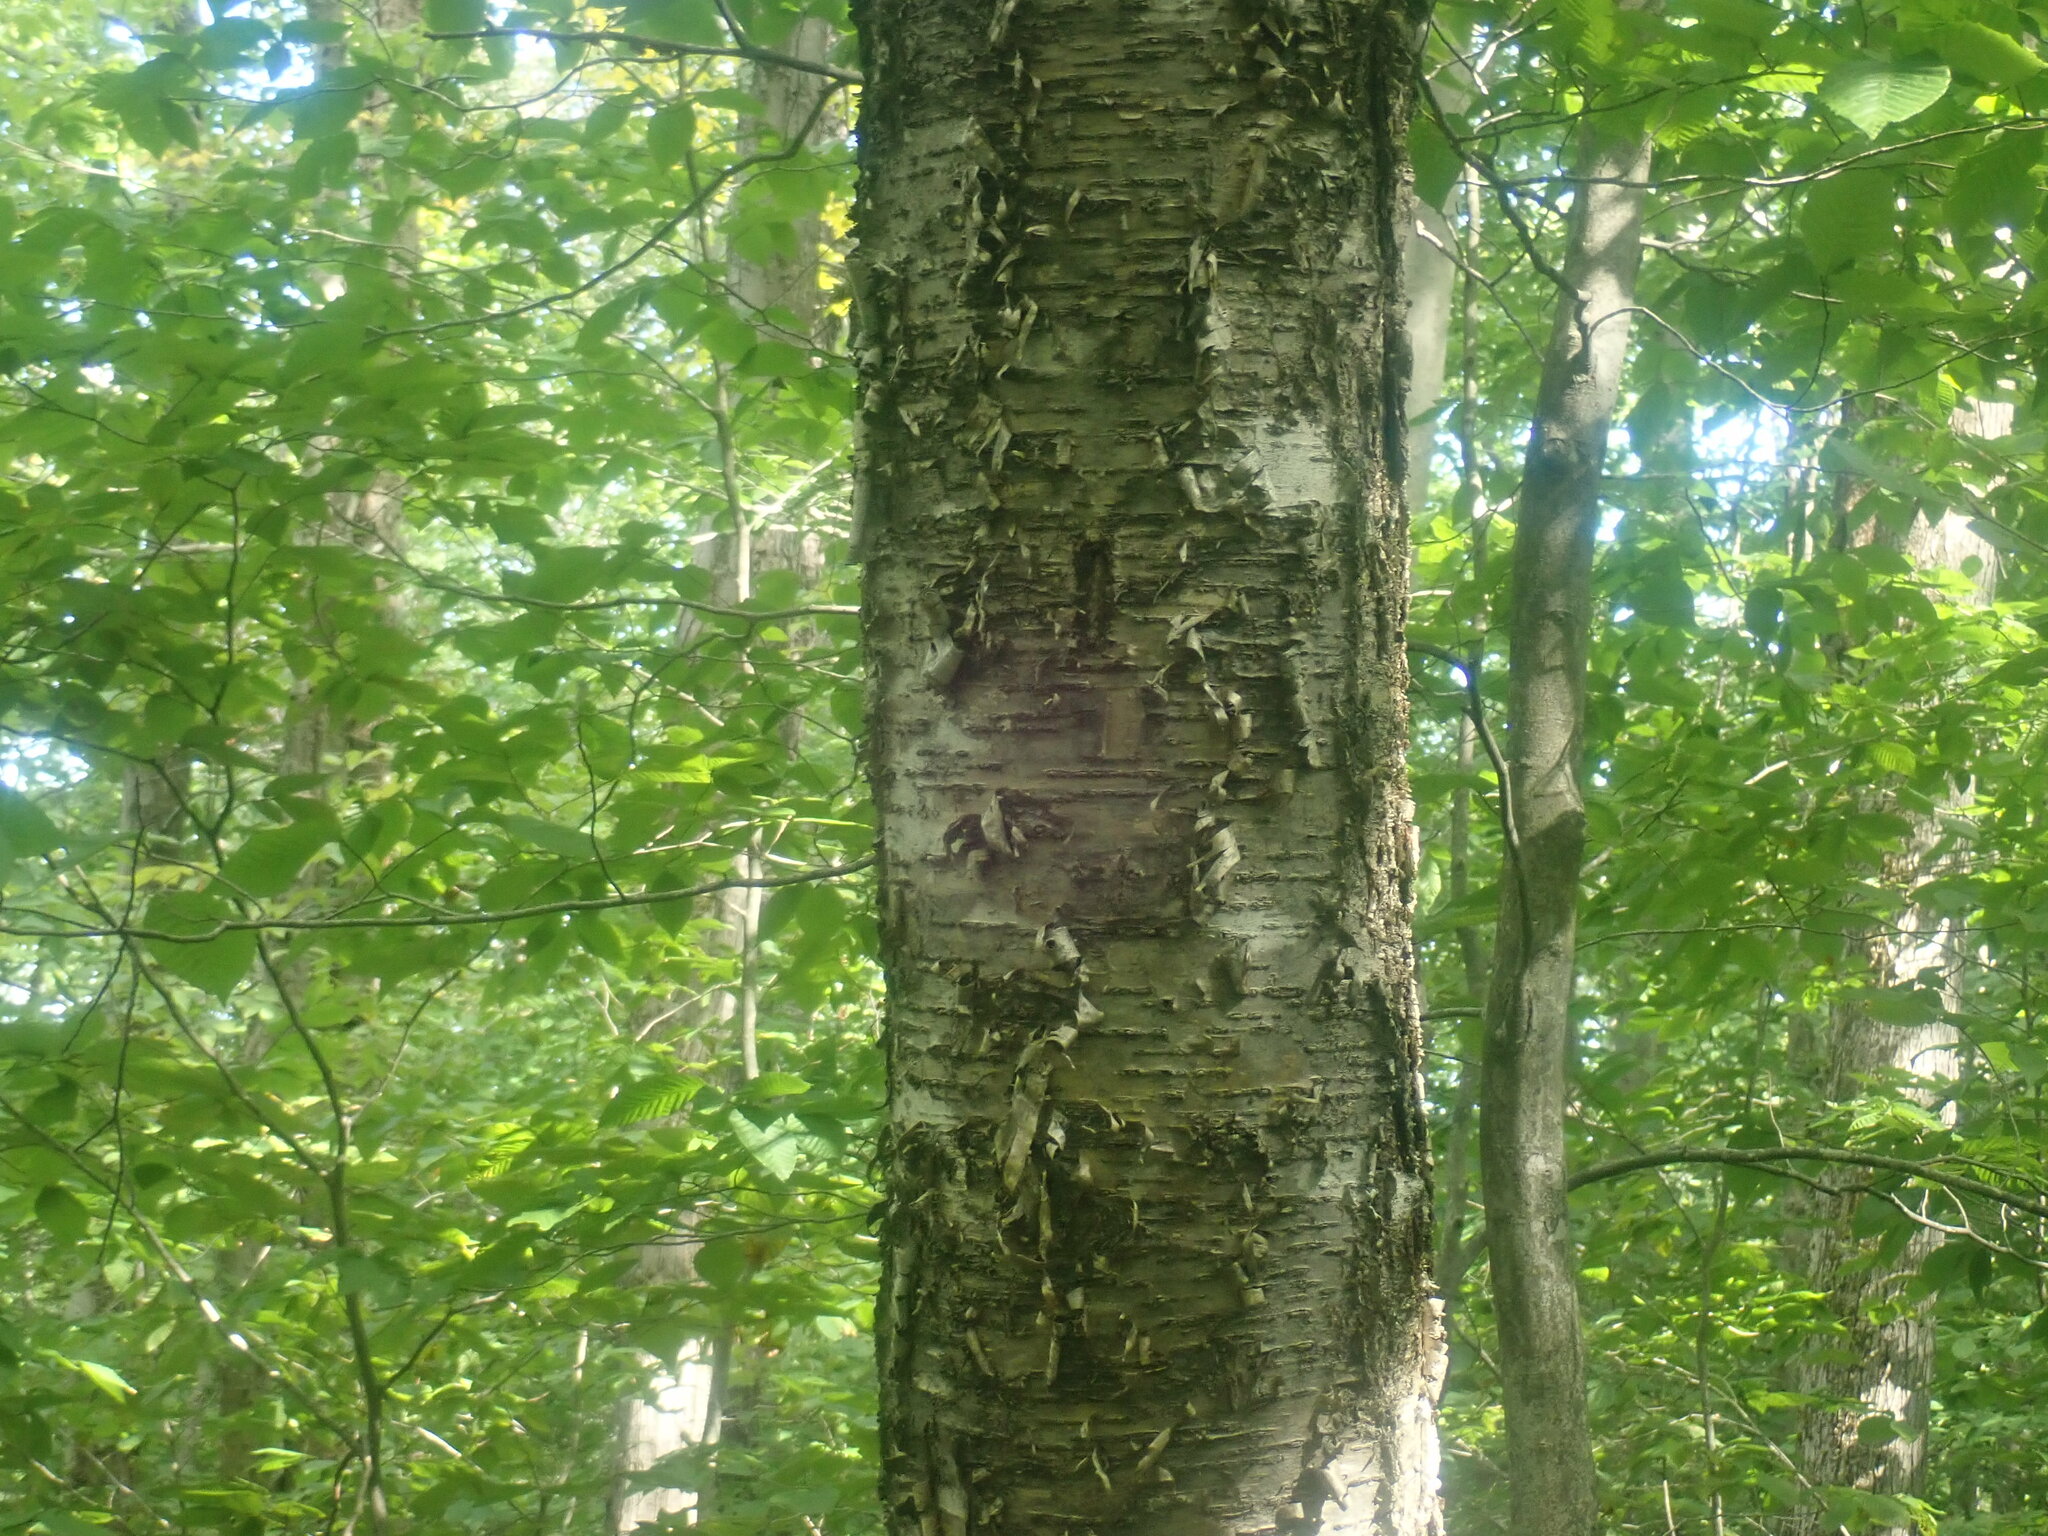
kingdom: Plantae
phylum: Tracheophyta
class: Magnoliopsida
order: Fagales
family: Betulaceae
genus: Betula
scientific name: Betula alleghaniensis
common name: Yellow birch
